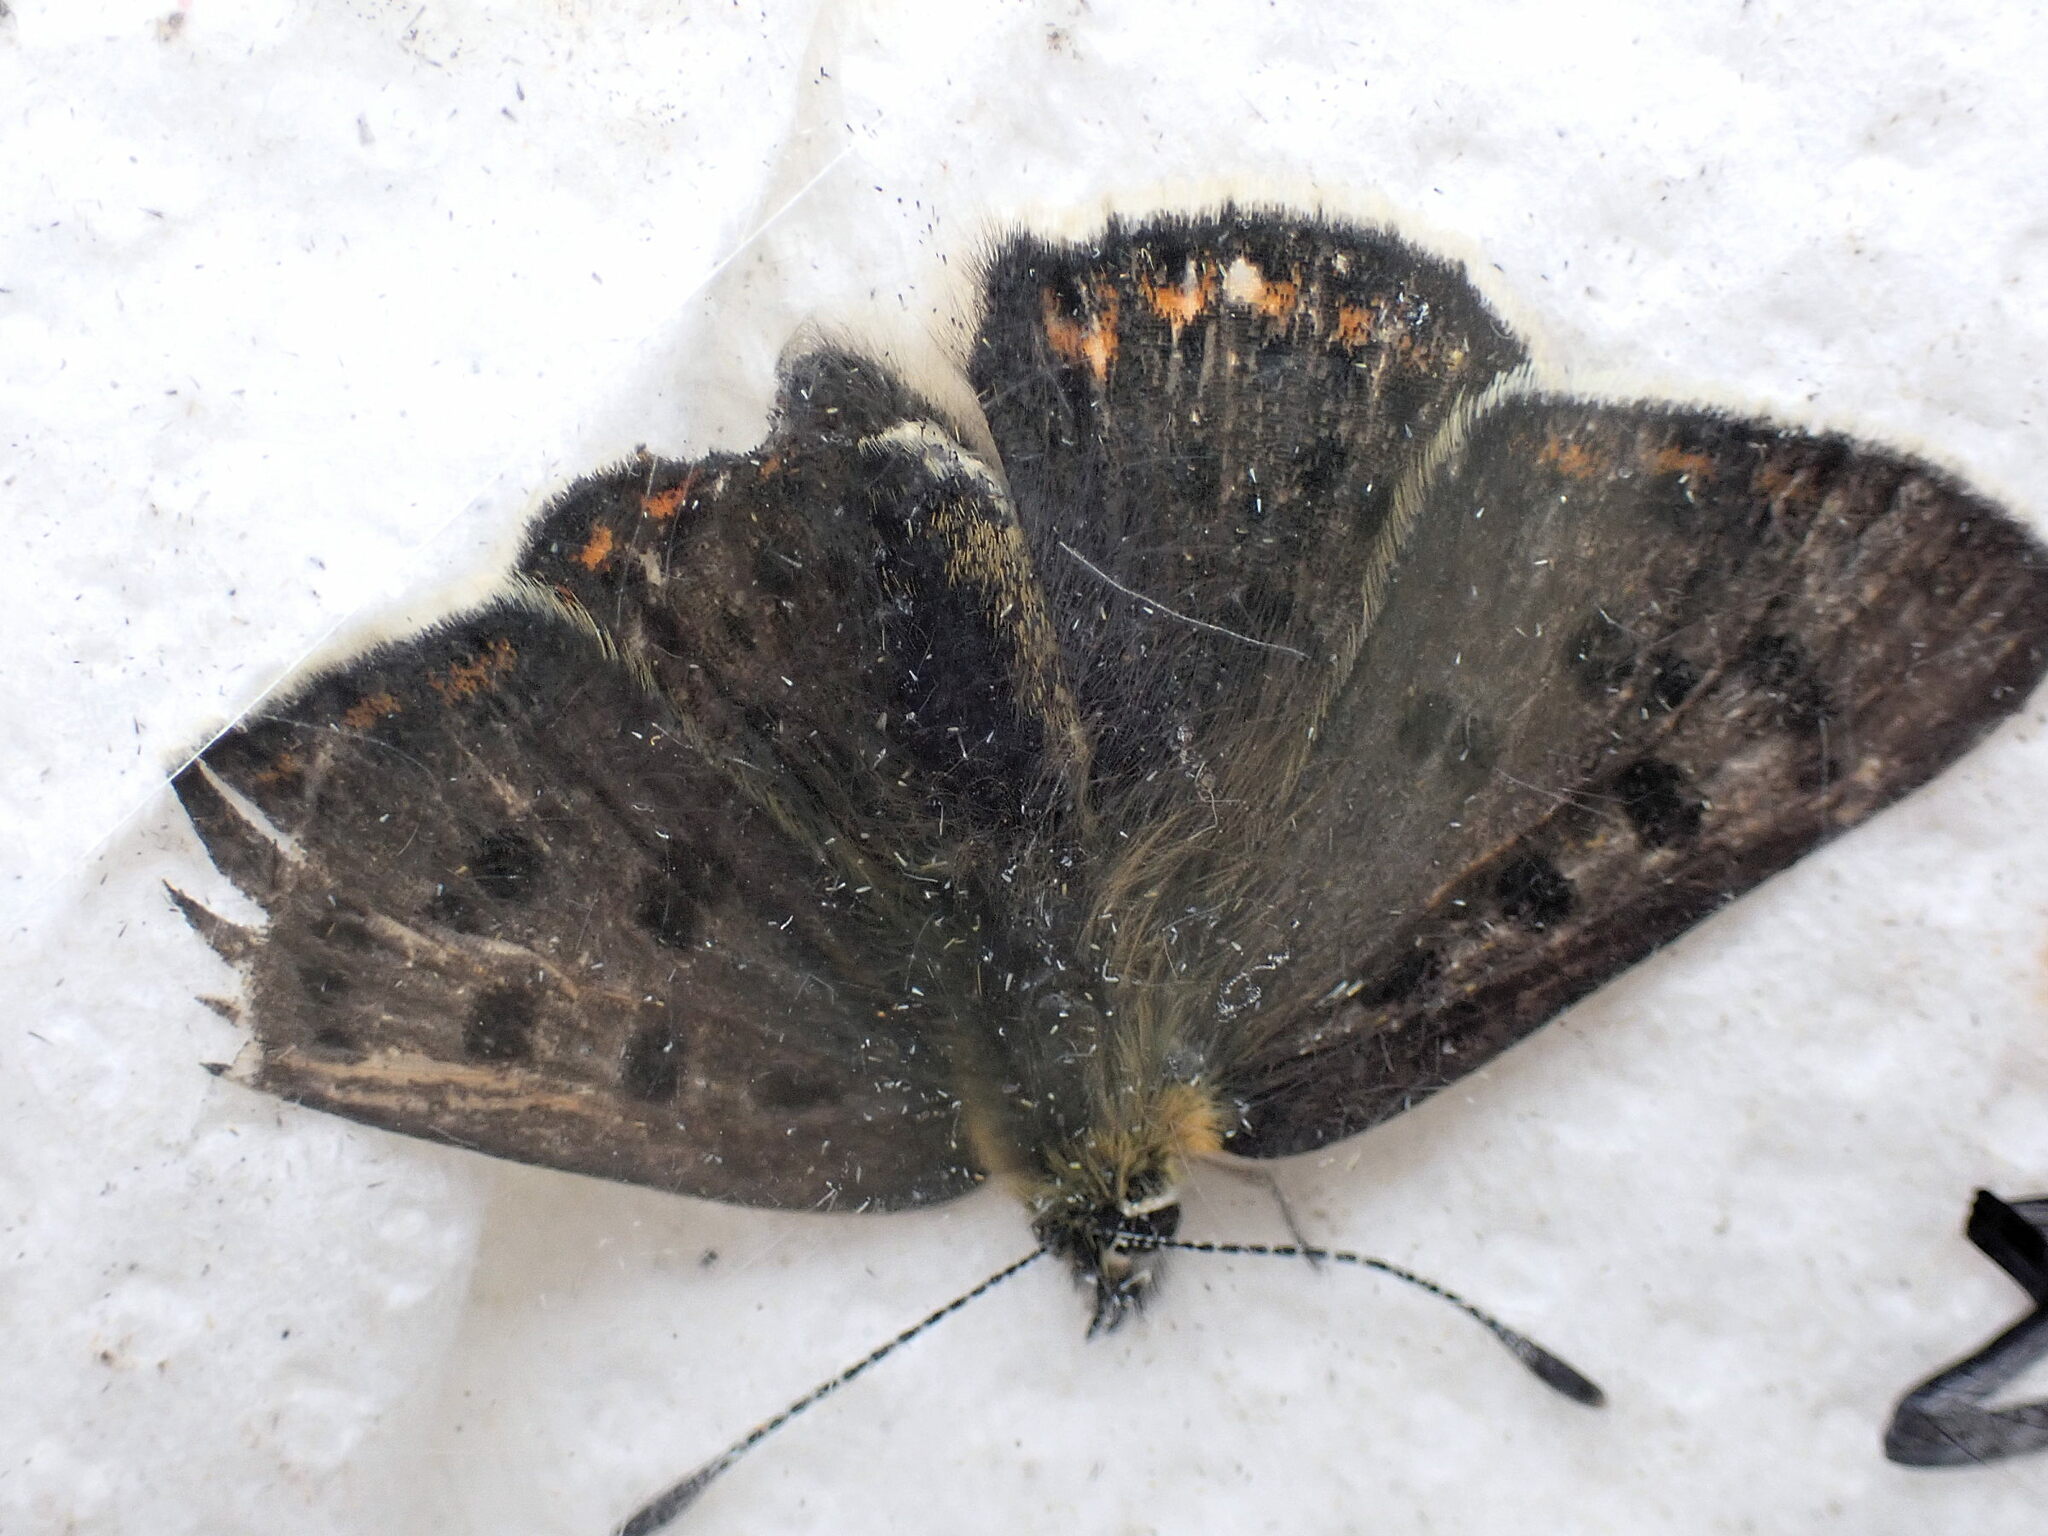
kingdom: Animalia
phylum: Arthropoda
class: Insecta
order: Lepidoptera
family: Lycaenidae
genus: Loweia
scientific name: Loweia tityrus
